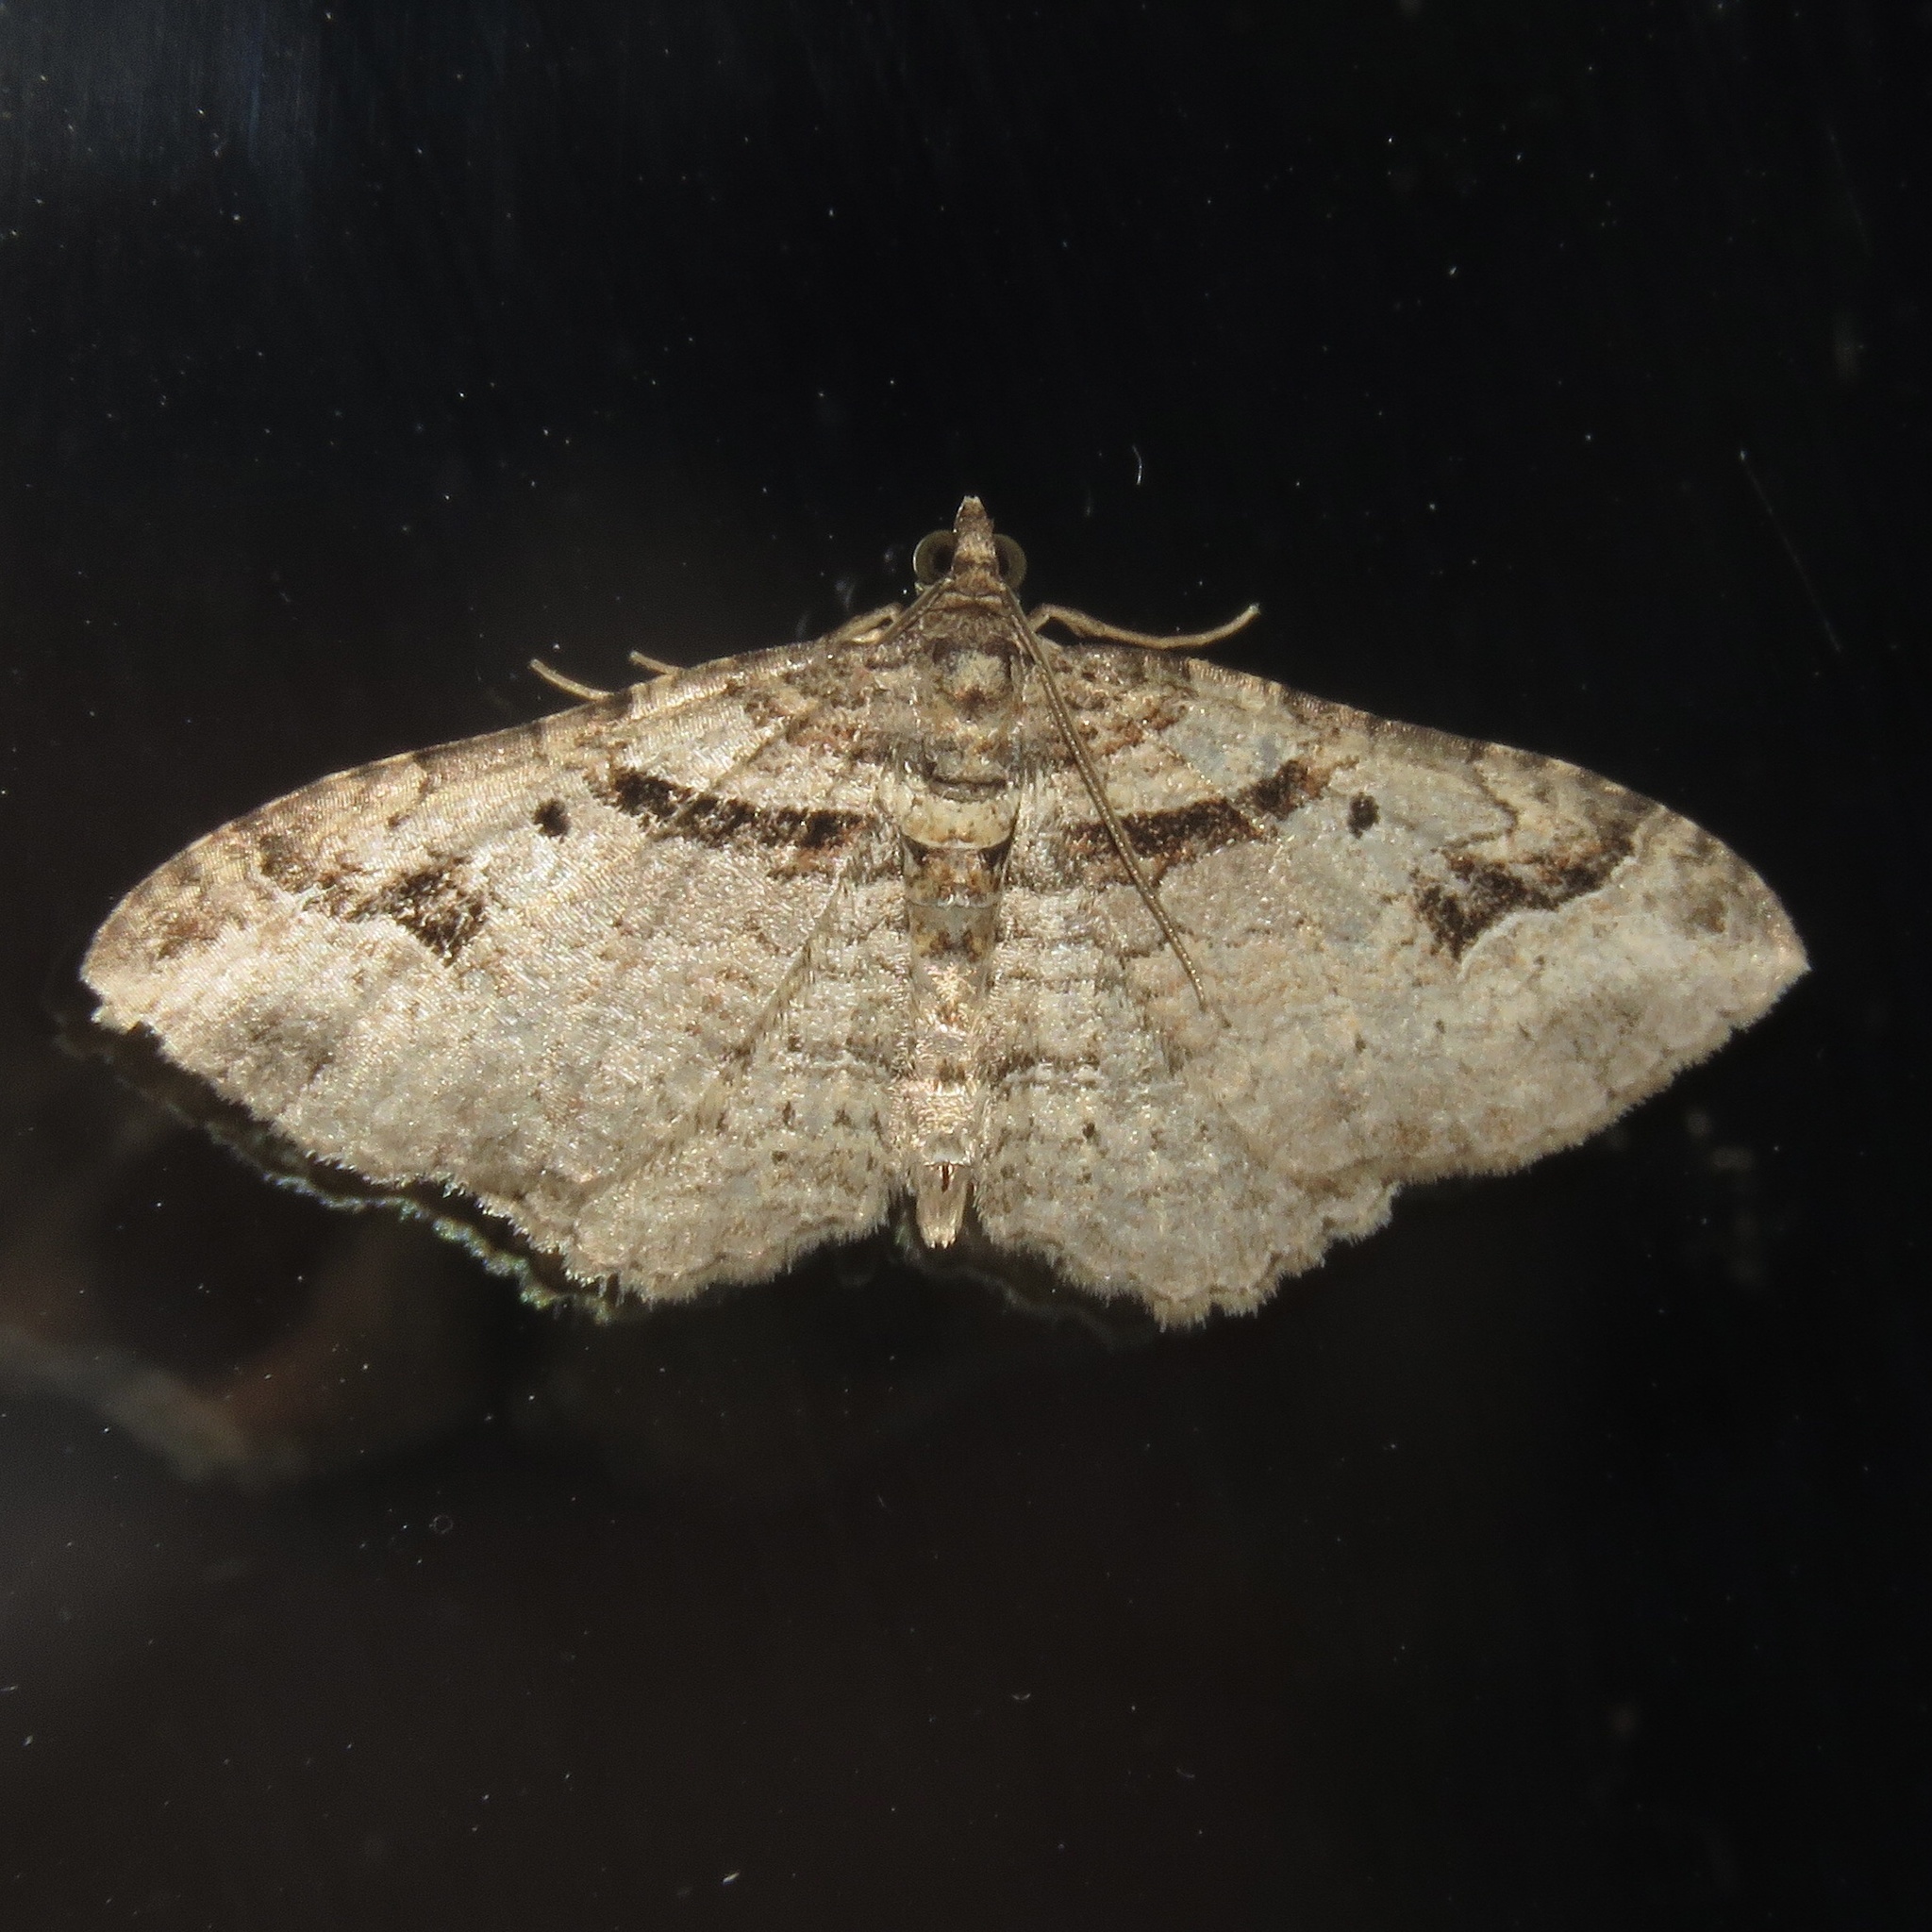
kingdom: Animalia
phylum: Arthropoda
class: Insecta
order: Lepidoptera
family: Geometridae
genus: Costaconvexa
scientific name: Costaconvexa centrostrigaria
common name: Bent-line carpet
